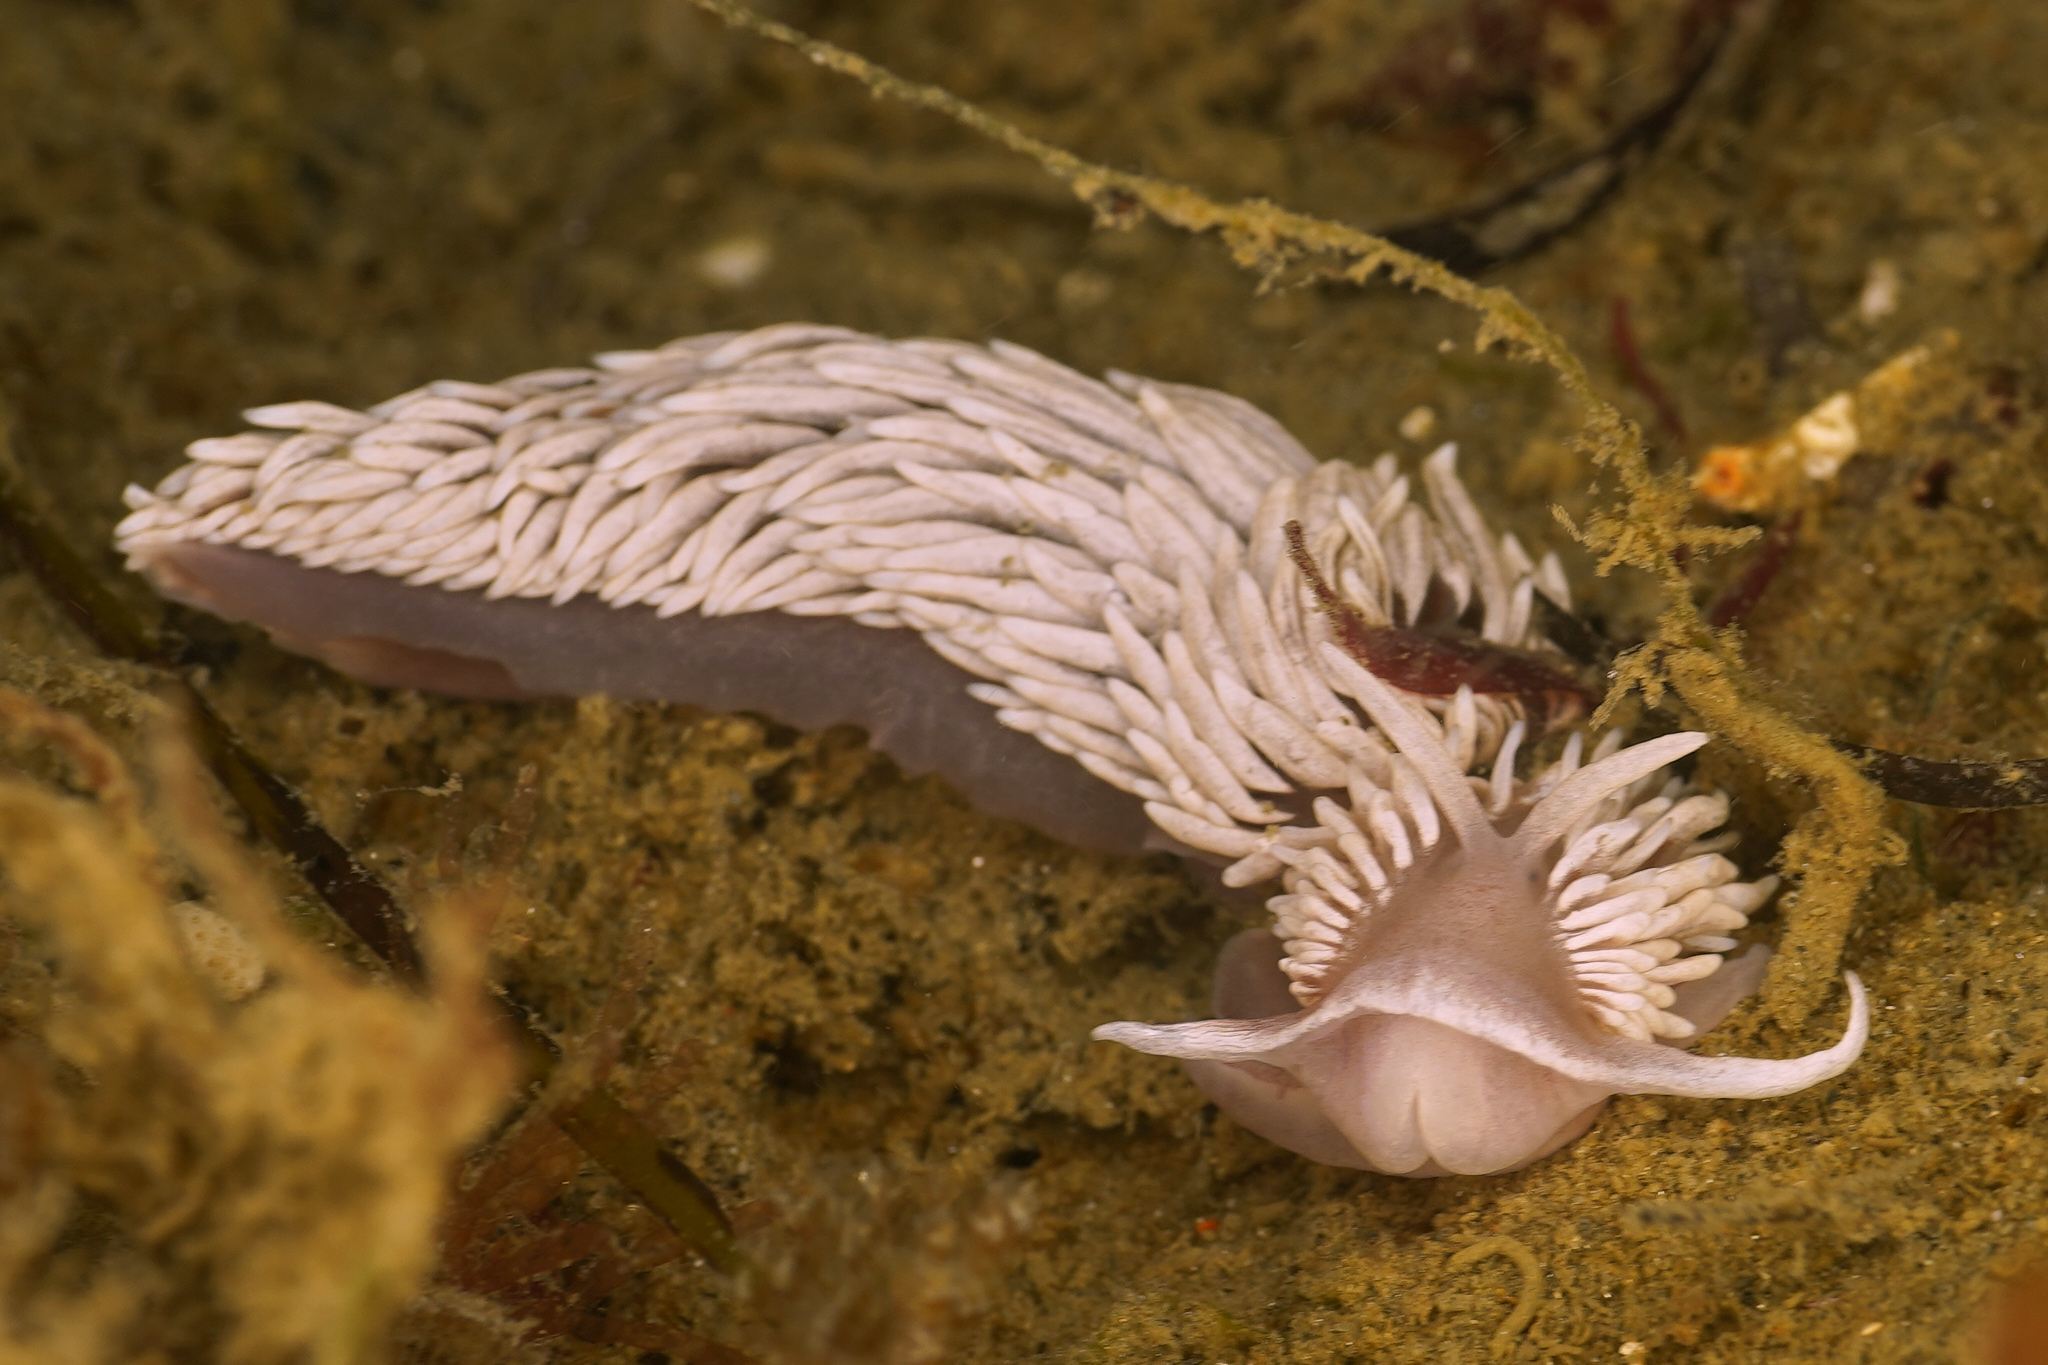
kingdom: Animalia
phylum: Mollusca
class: Gastropoda
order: Nudibranchia
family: Aeolidiidae
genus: Aeolidiella
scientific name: Aeolidiella drusilla
